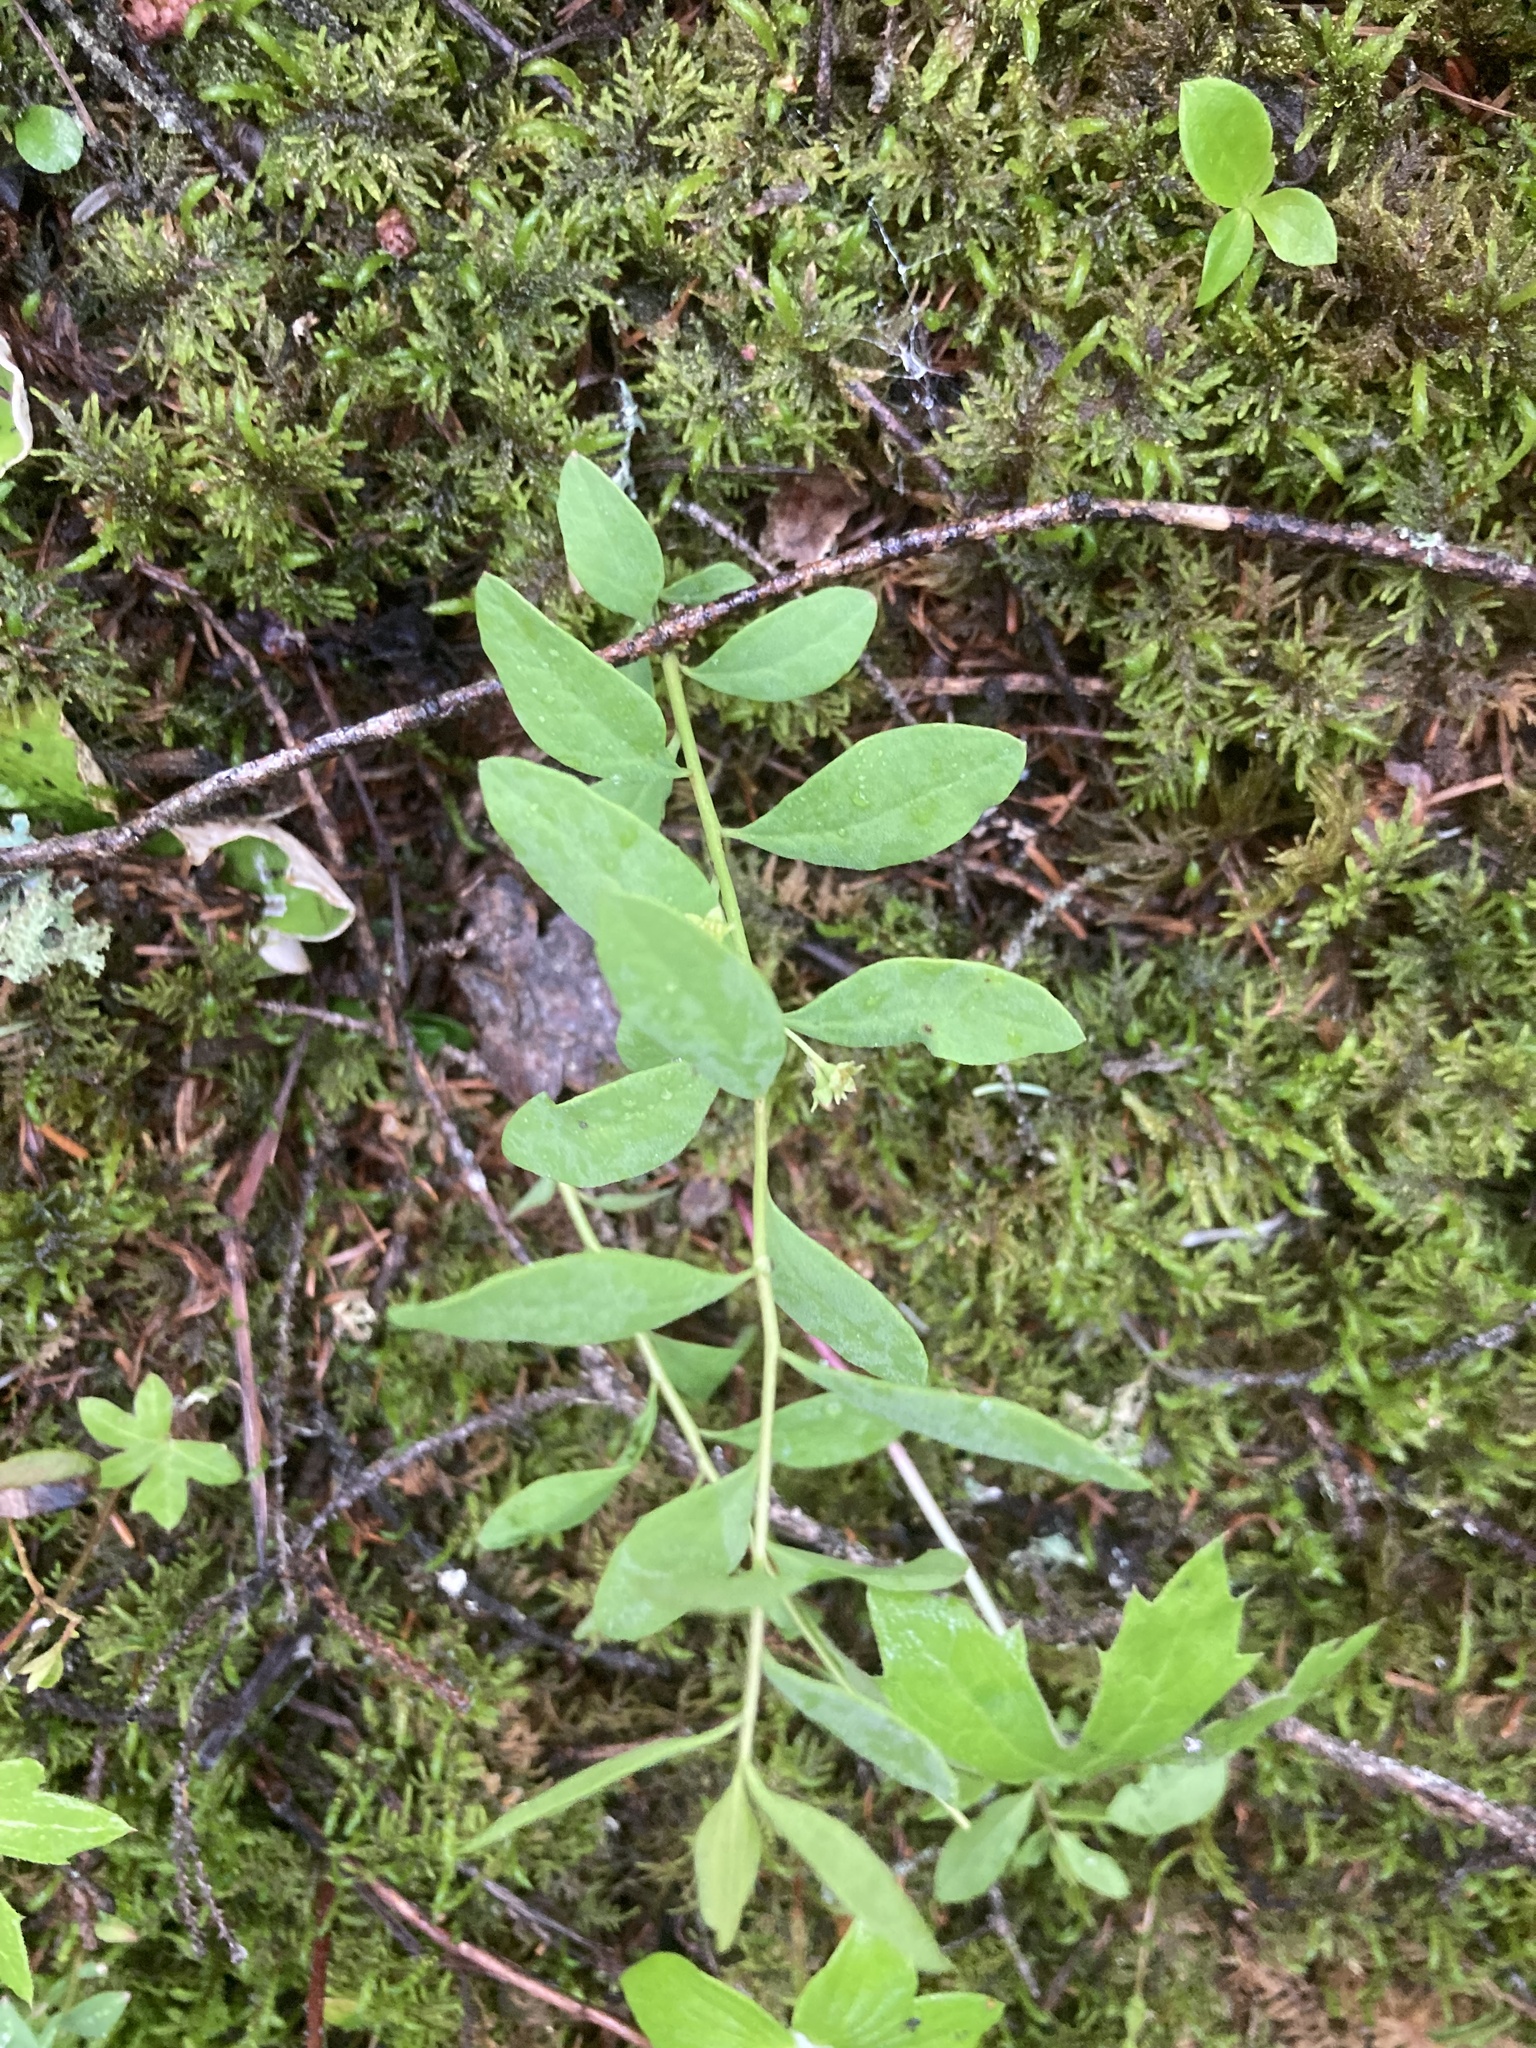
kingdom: Plantae
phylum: Tracheophyta
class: Magnoliopsida
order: Santalales
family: Comandraceae
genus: Geocaulon
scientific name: Geocaulon lividum
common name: Earthberry
